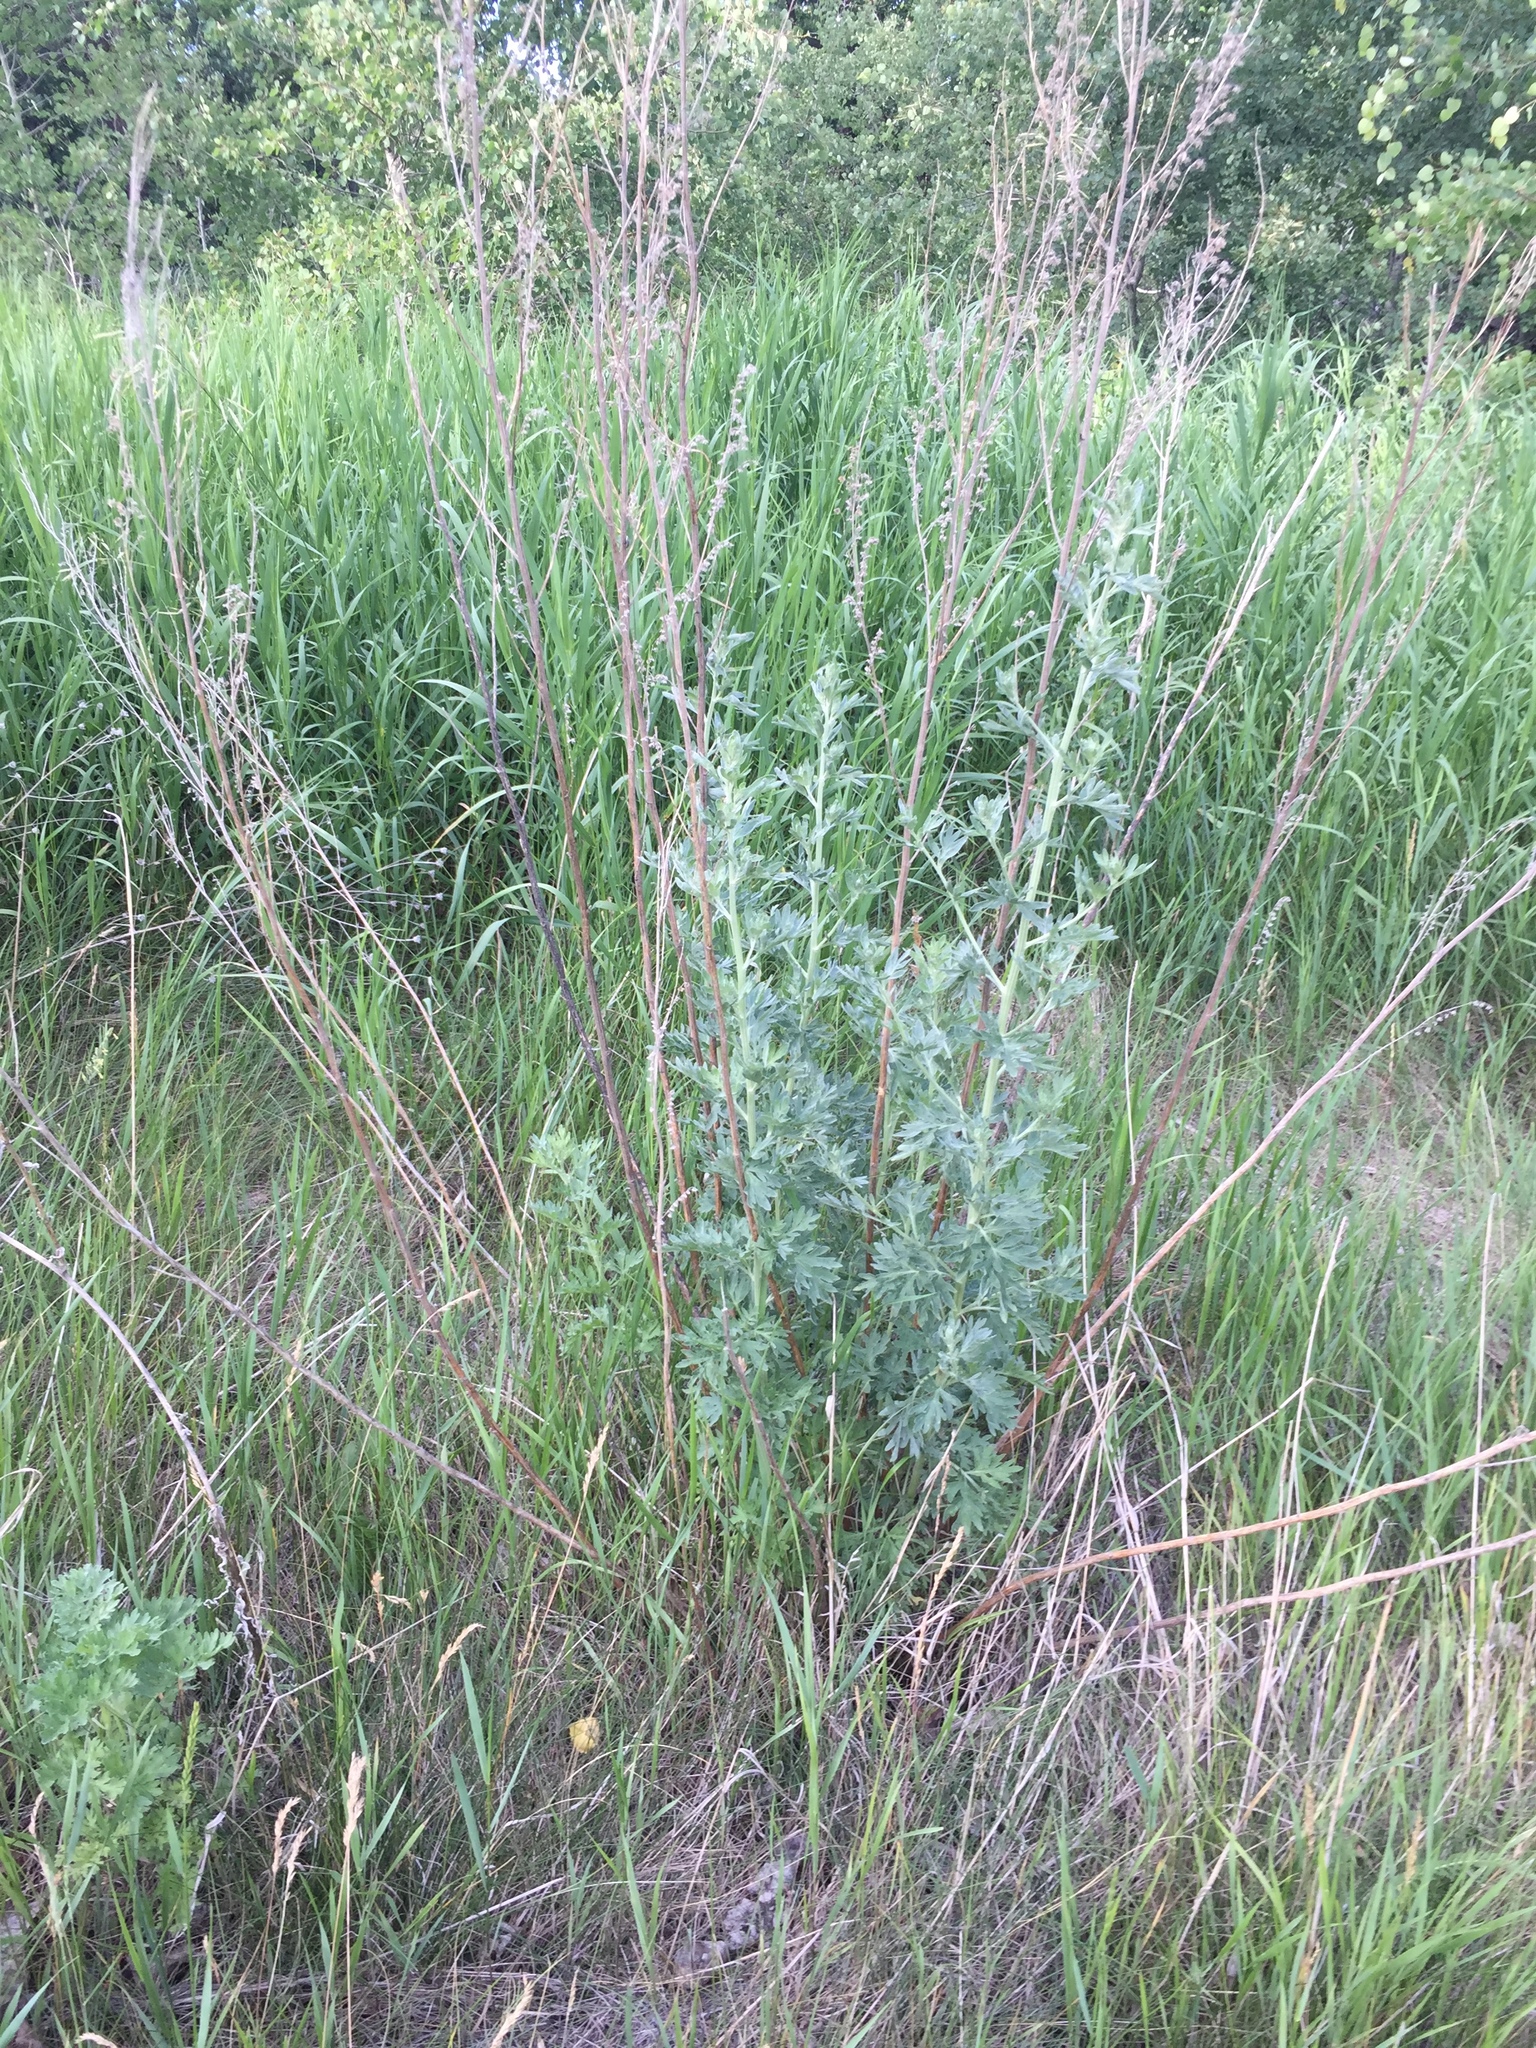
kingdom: Plantae
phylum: Tracheophyta
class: Magnoliopsida
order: Asterales
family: Asteraceae
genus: Artemisia
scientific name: Artemisia absinthium
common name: Wormwood
